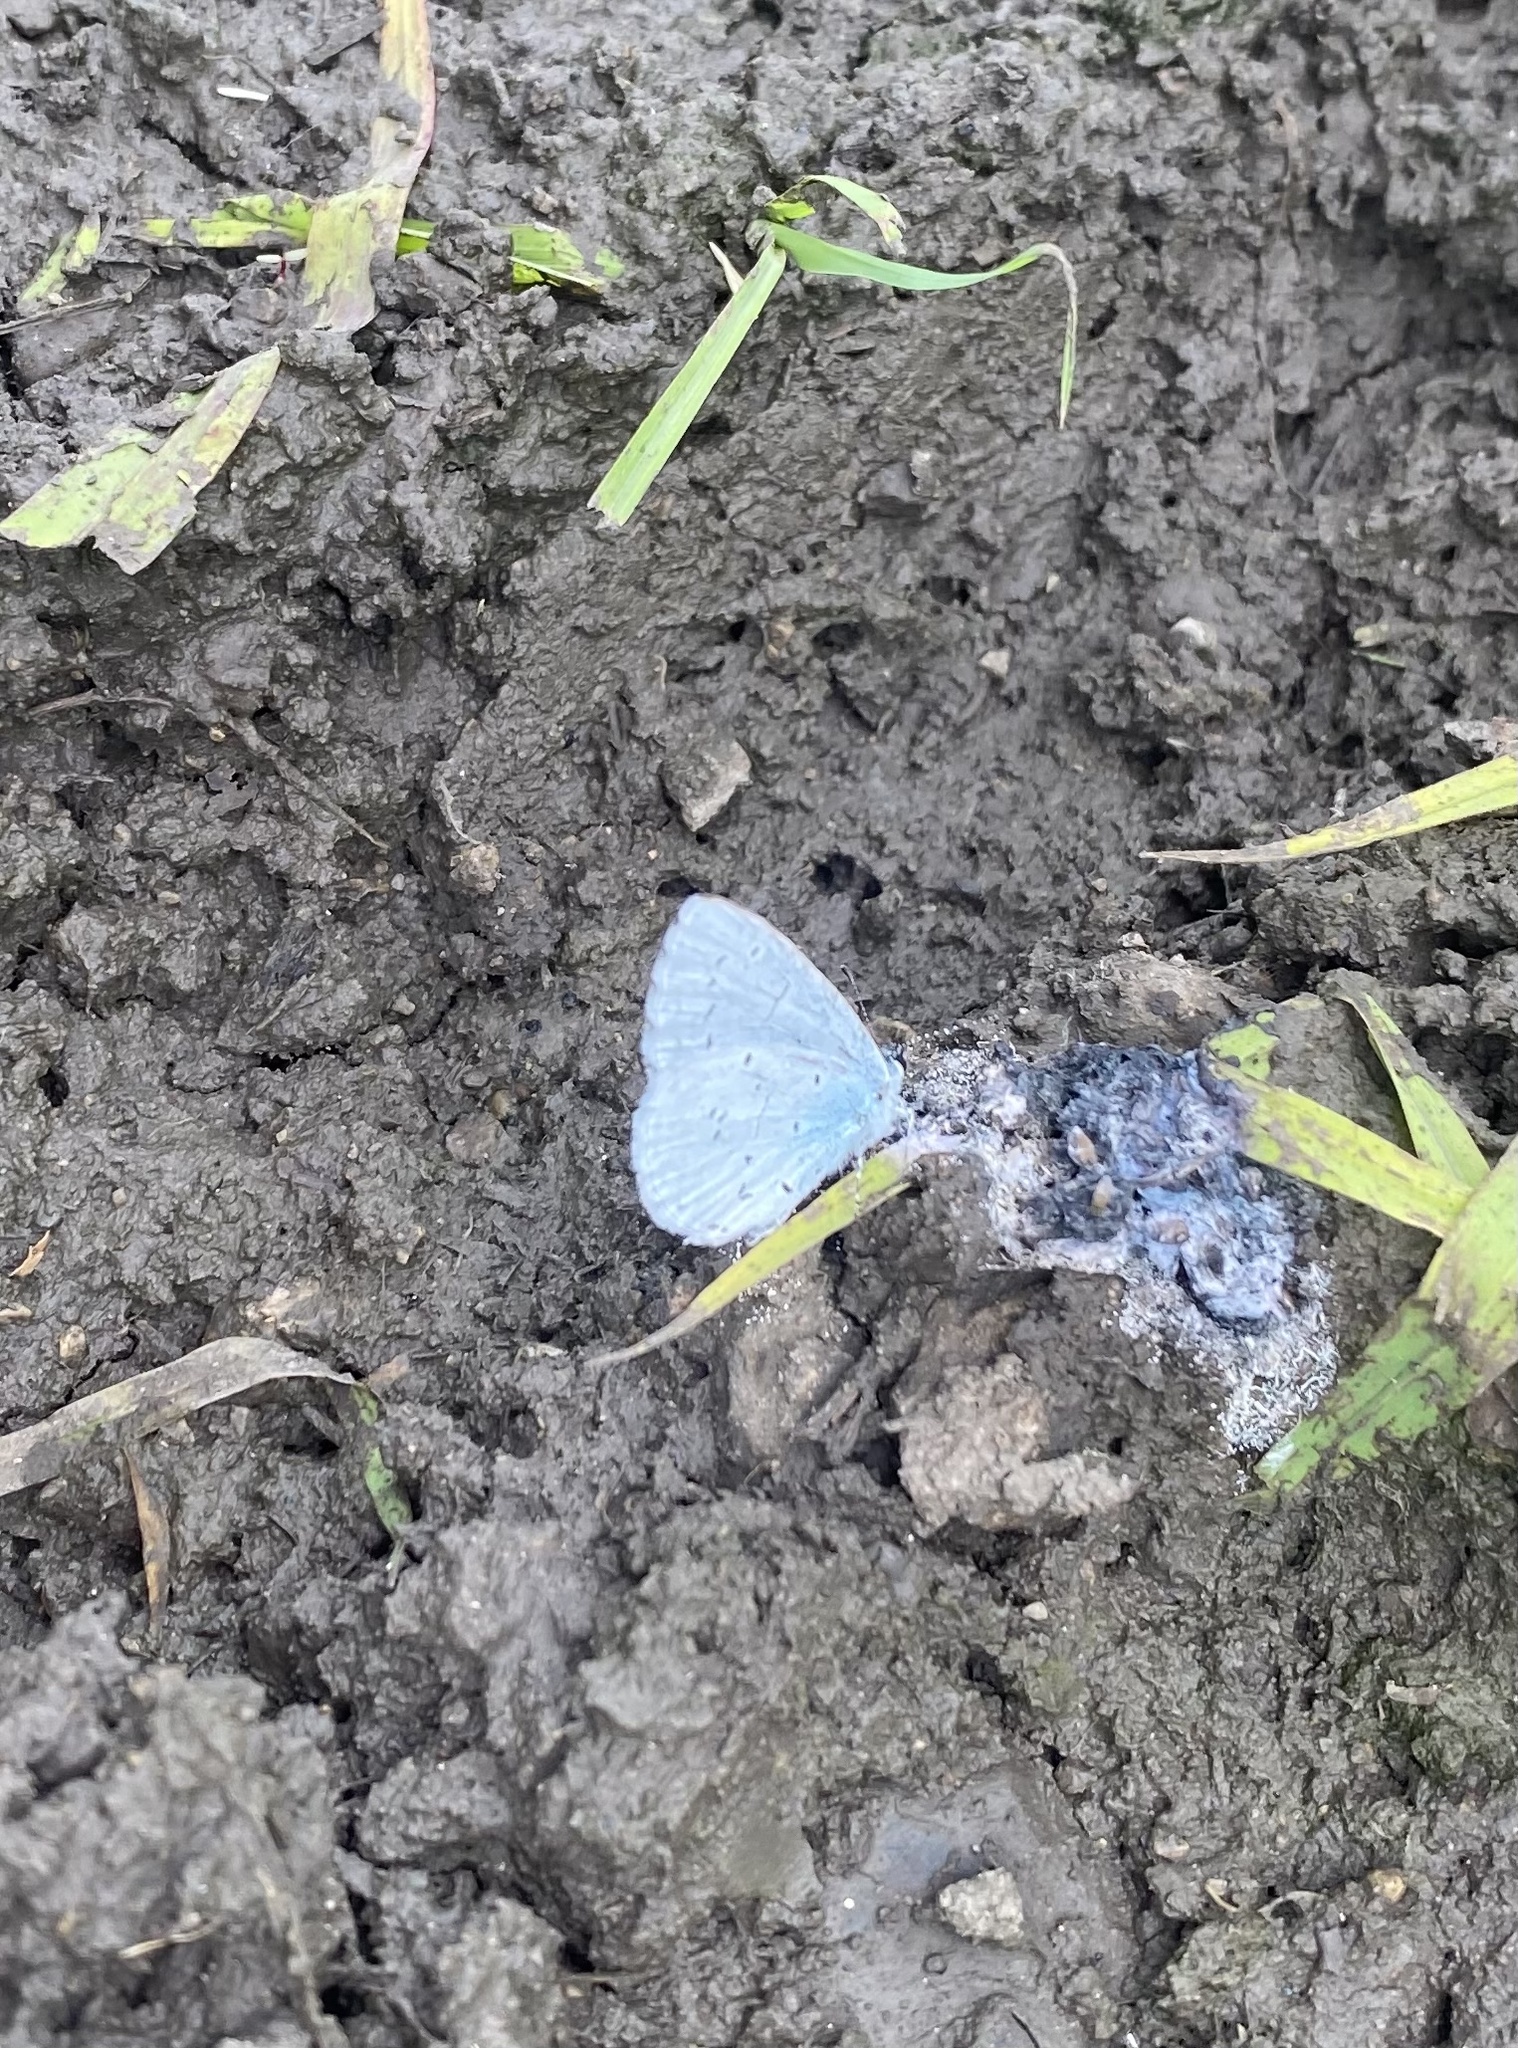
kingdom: Animalia
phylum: Arthropoda
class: Insecta
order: Lepidoptera
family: Lycaenidae
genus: Celastrina
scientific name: Celastrina argiolus
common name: Holly blue
